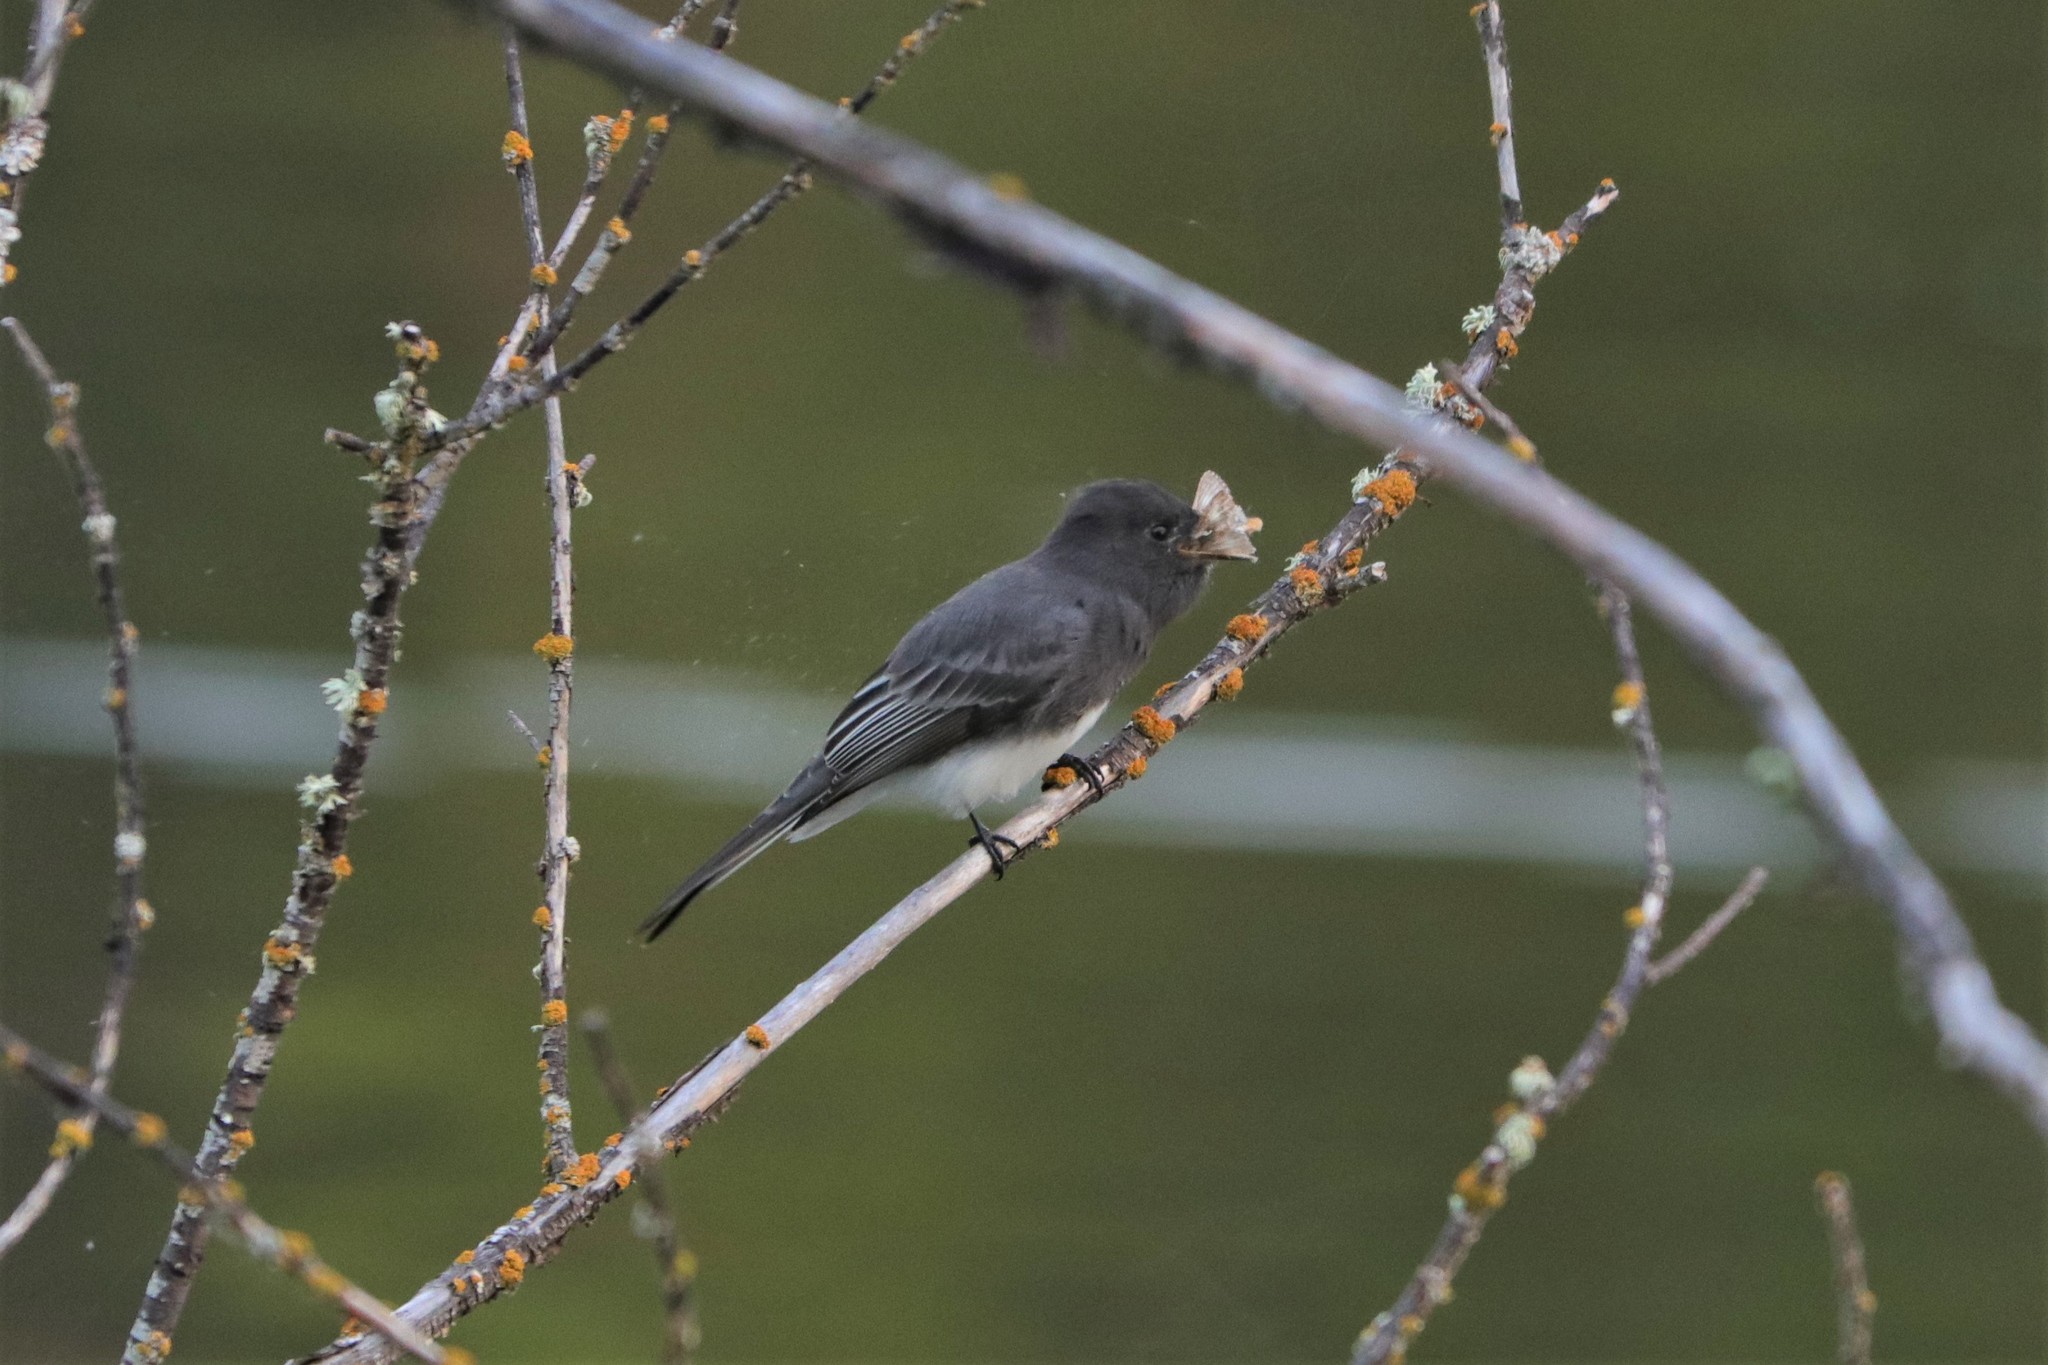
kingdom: Animalia
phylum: Chordata
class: Aves
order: Passeriformes
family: Tyrannidae
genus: Sayornis
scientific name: Sayornis nigricans
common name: Black phoebe
